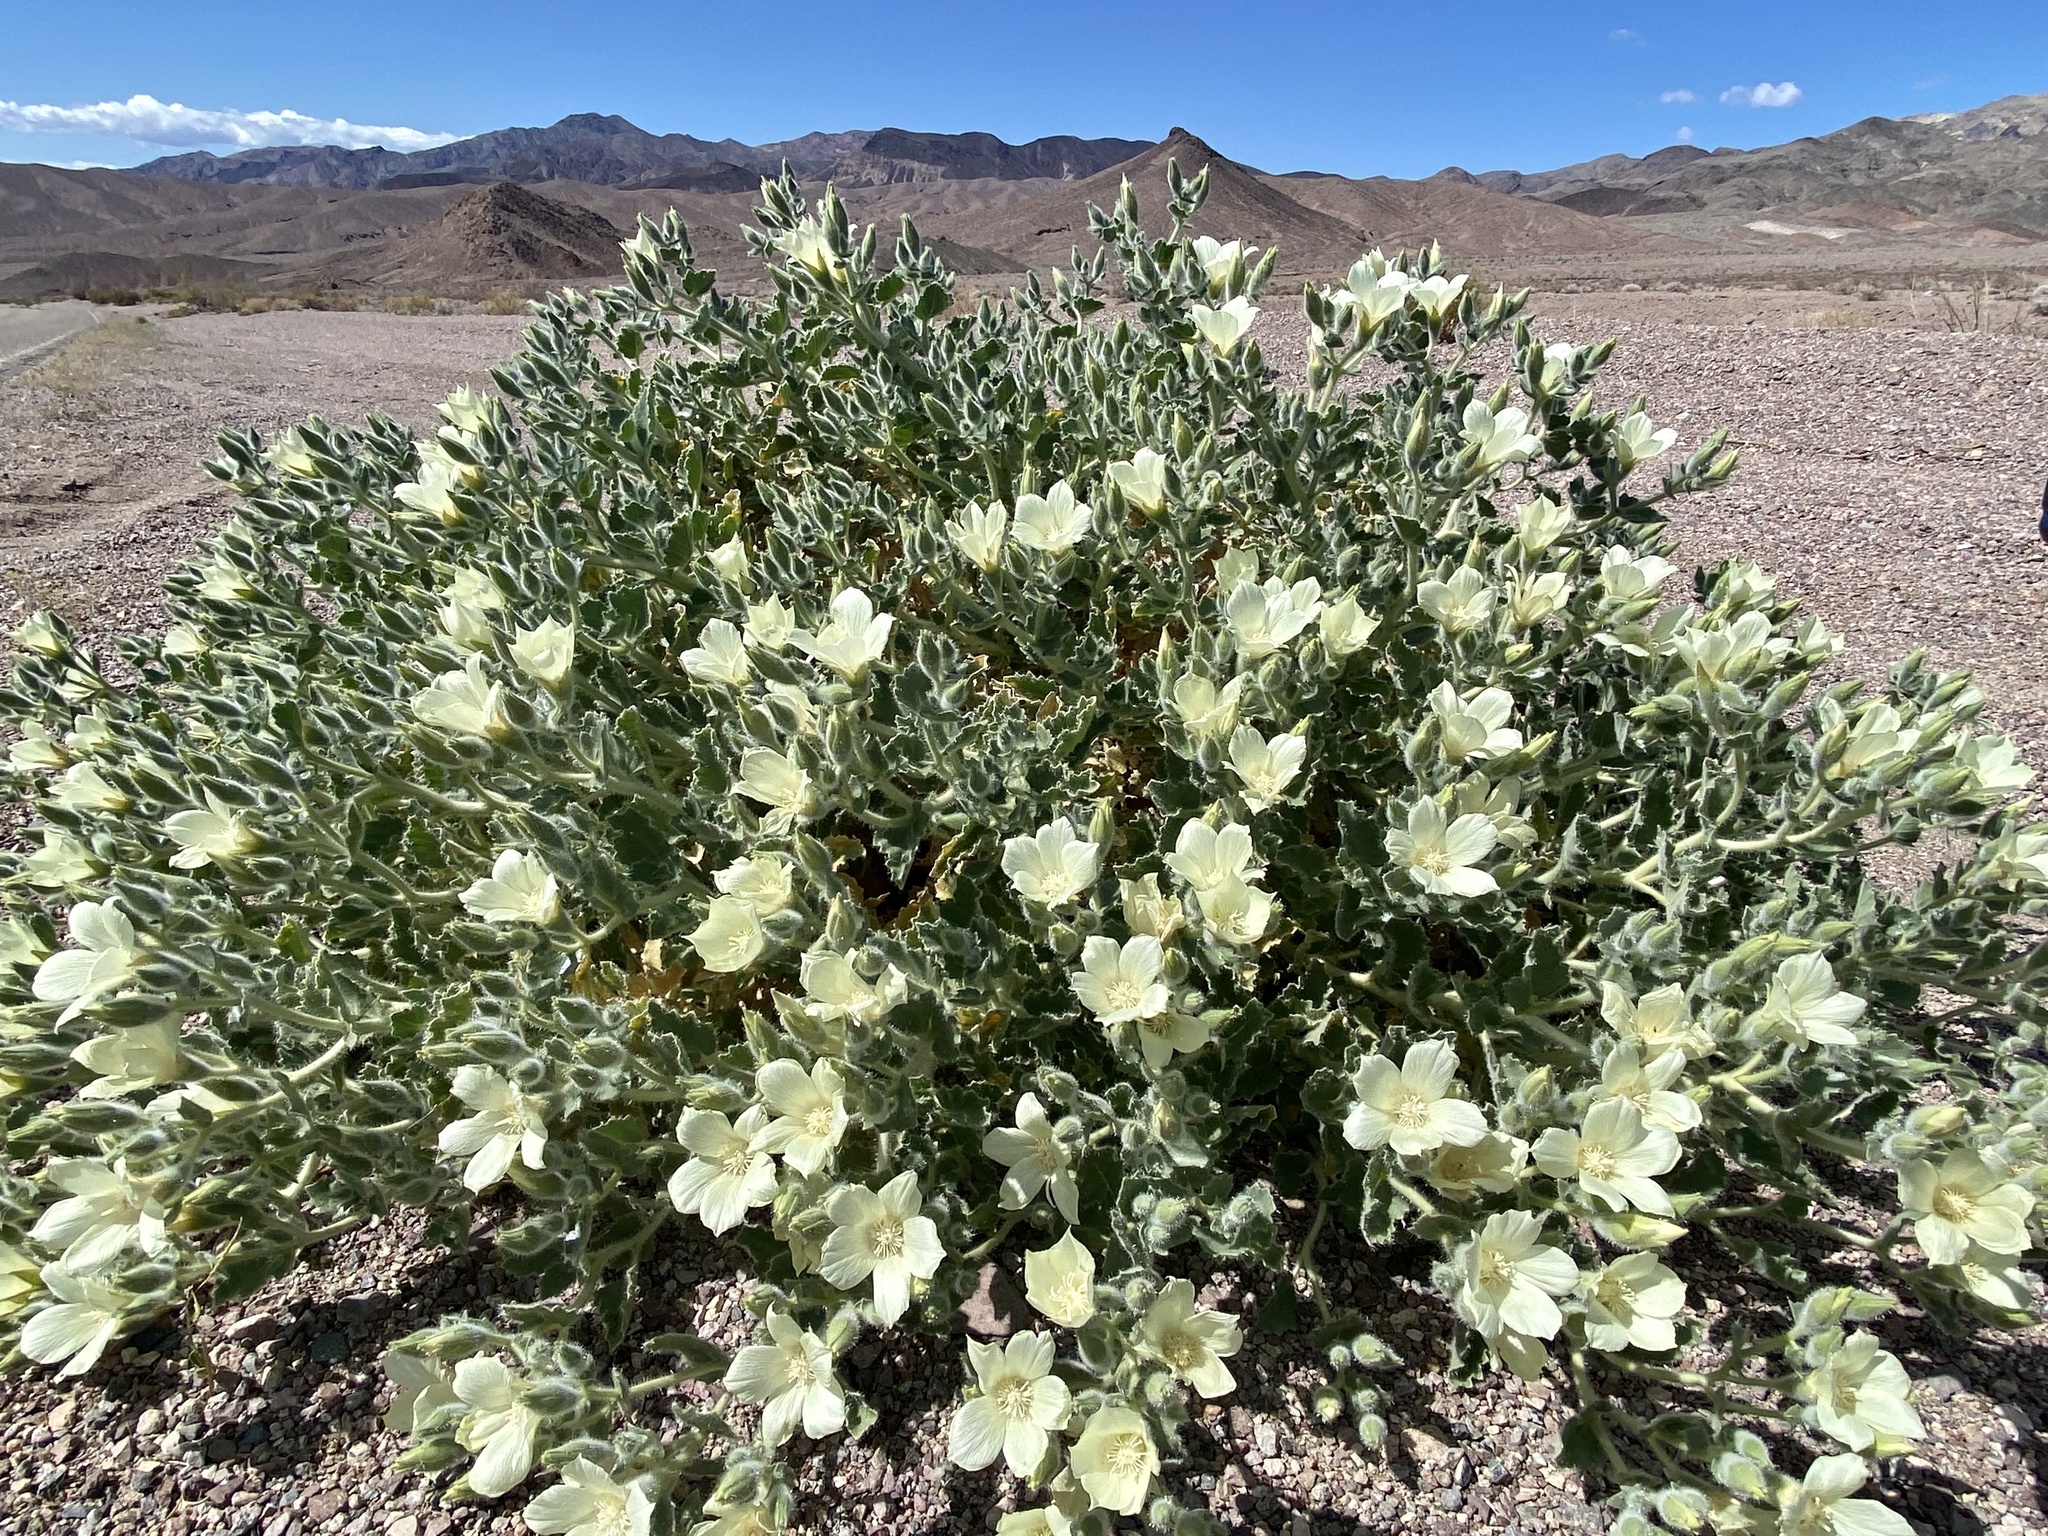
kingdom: Plantae
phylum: Tracheophyta
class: Magnoliopsida
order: Cornales
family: Loasaceae
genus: Eucnide
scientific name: Eucnide urens
